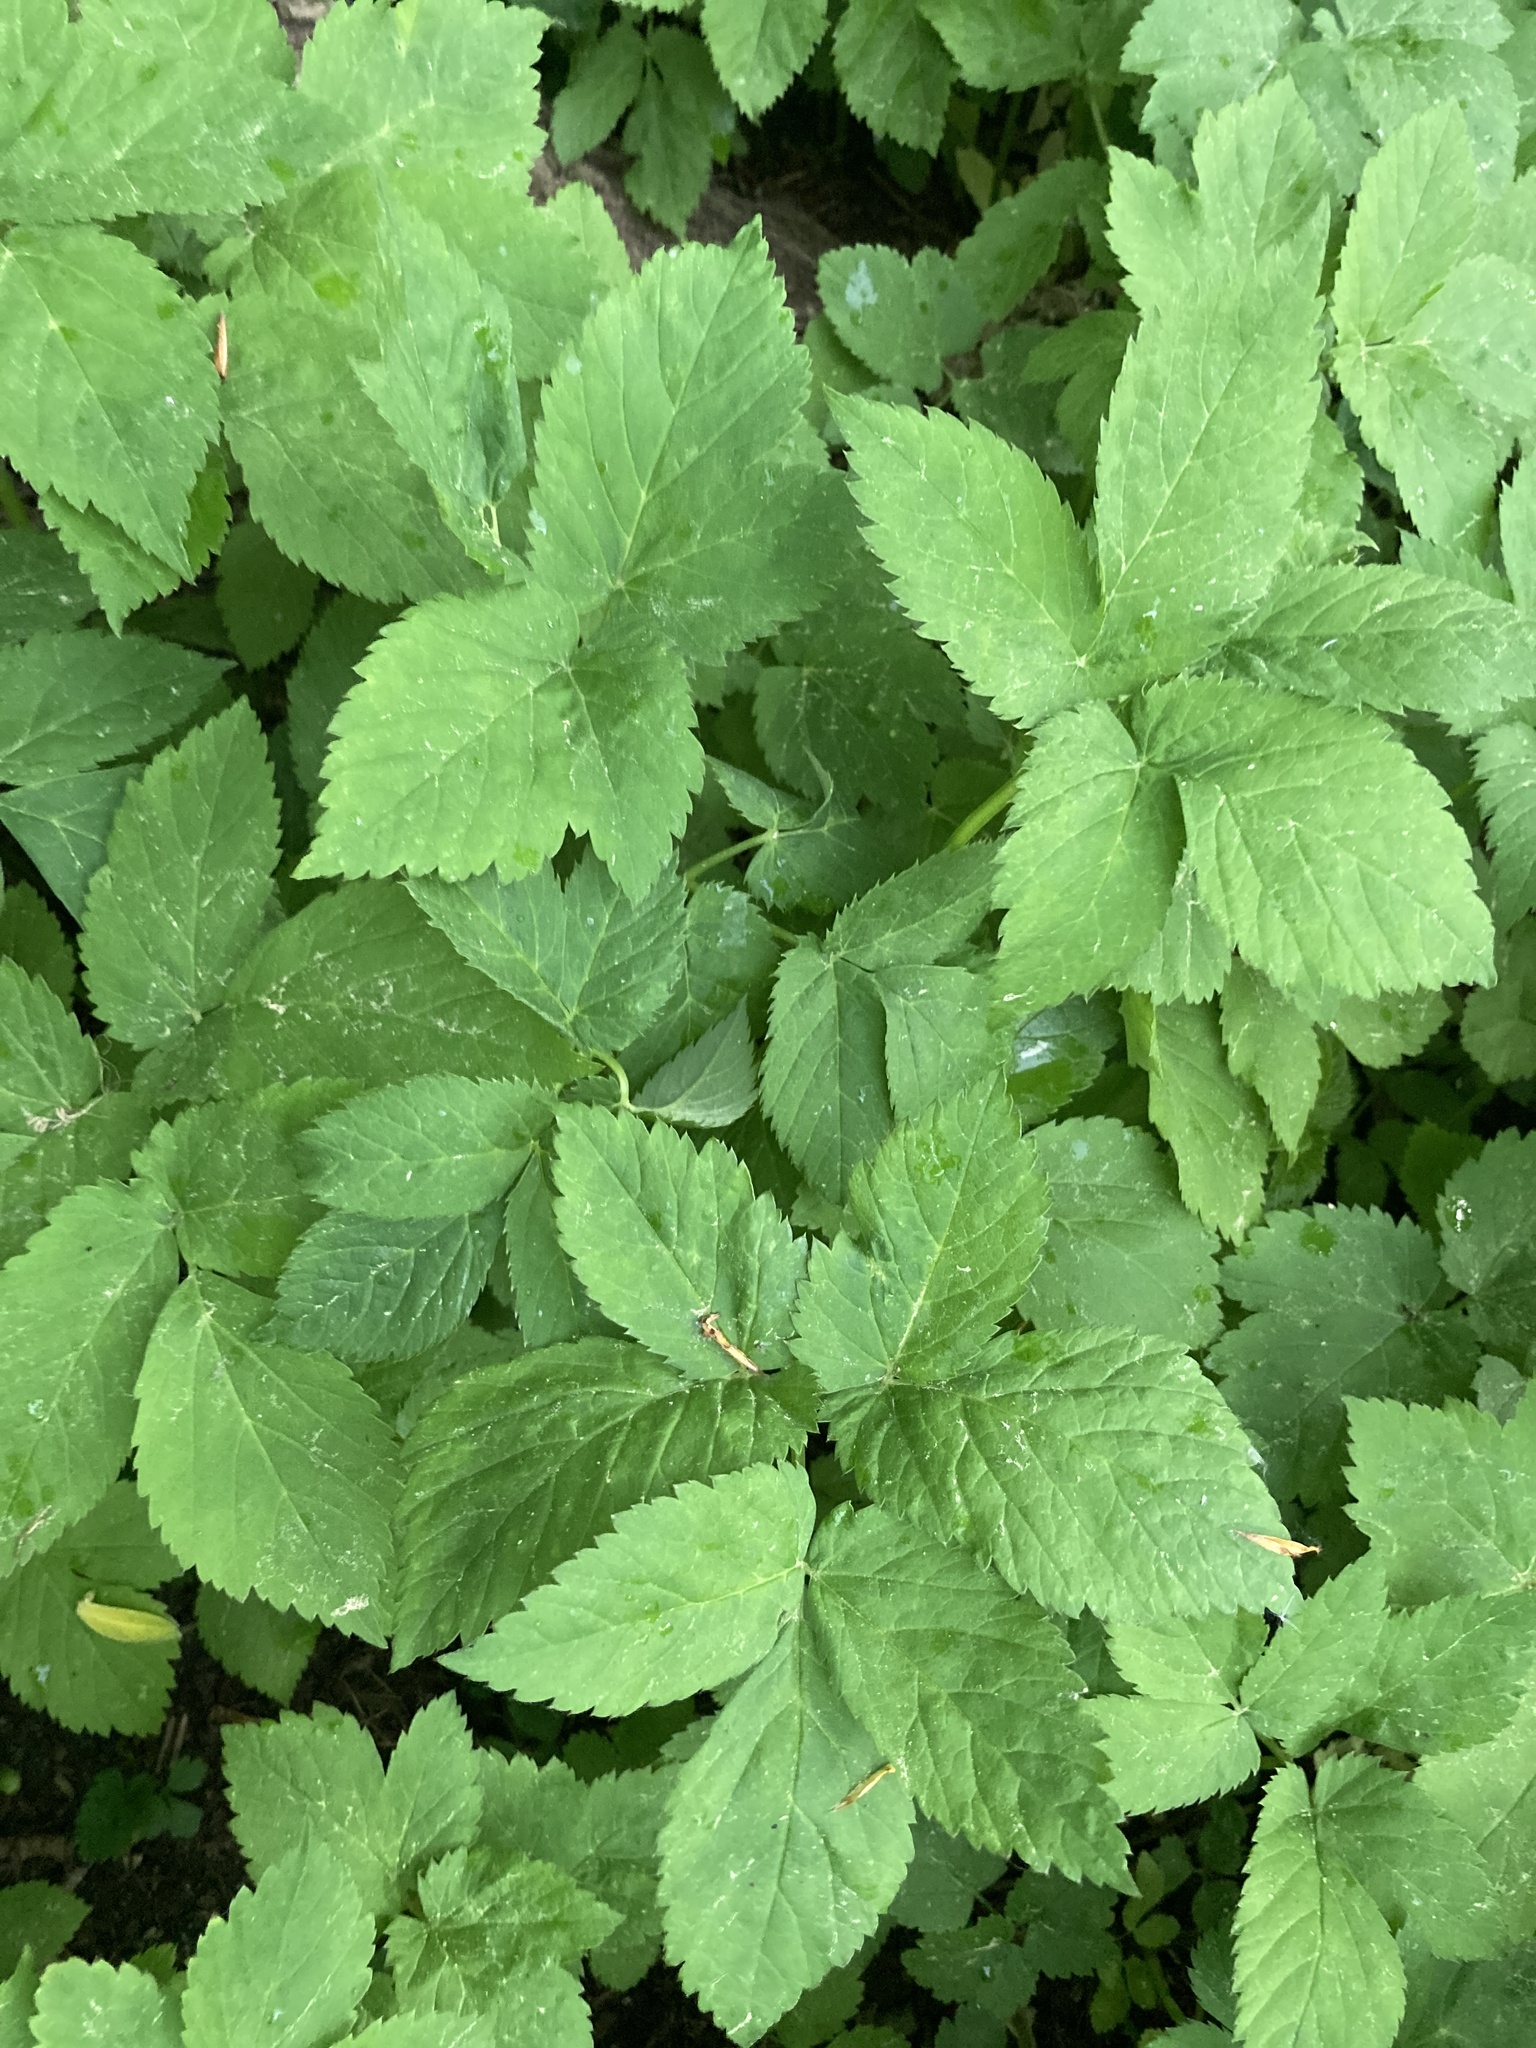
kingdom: Plantae
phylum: Tracheophyta
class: Magnoliopsida
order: Apiales
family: Apiaceae
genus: Aegopodium
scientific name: Aegopodium podagraria
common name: Ground-elder
